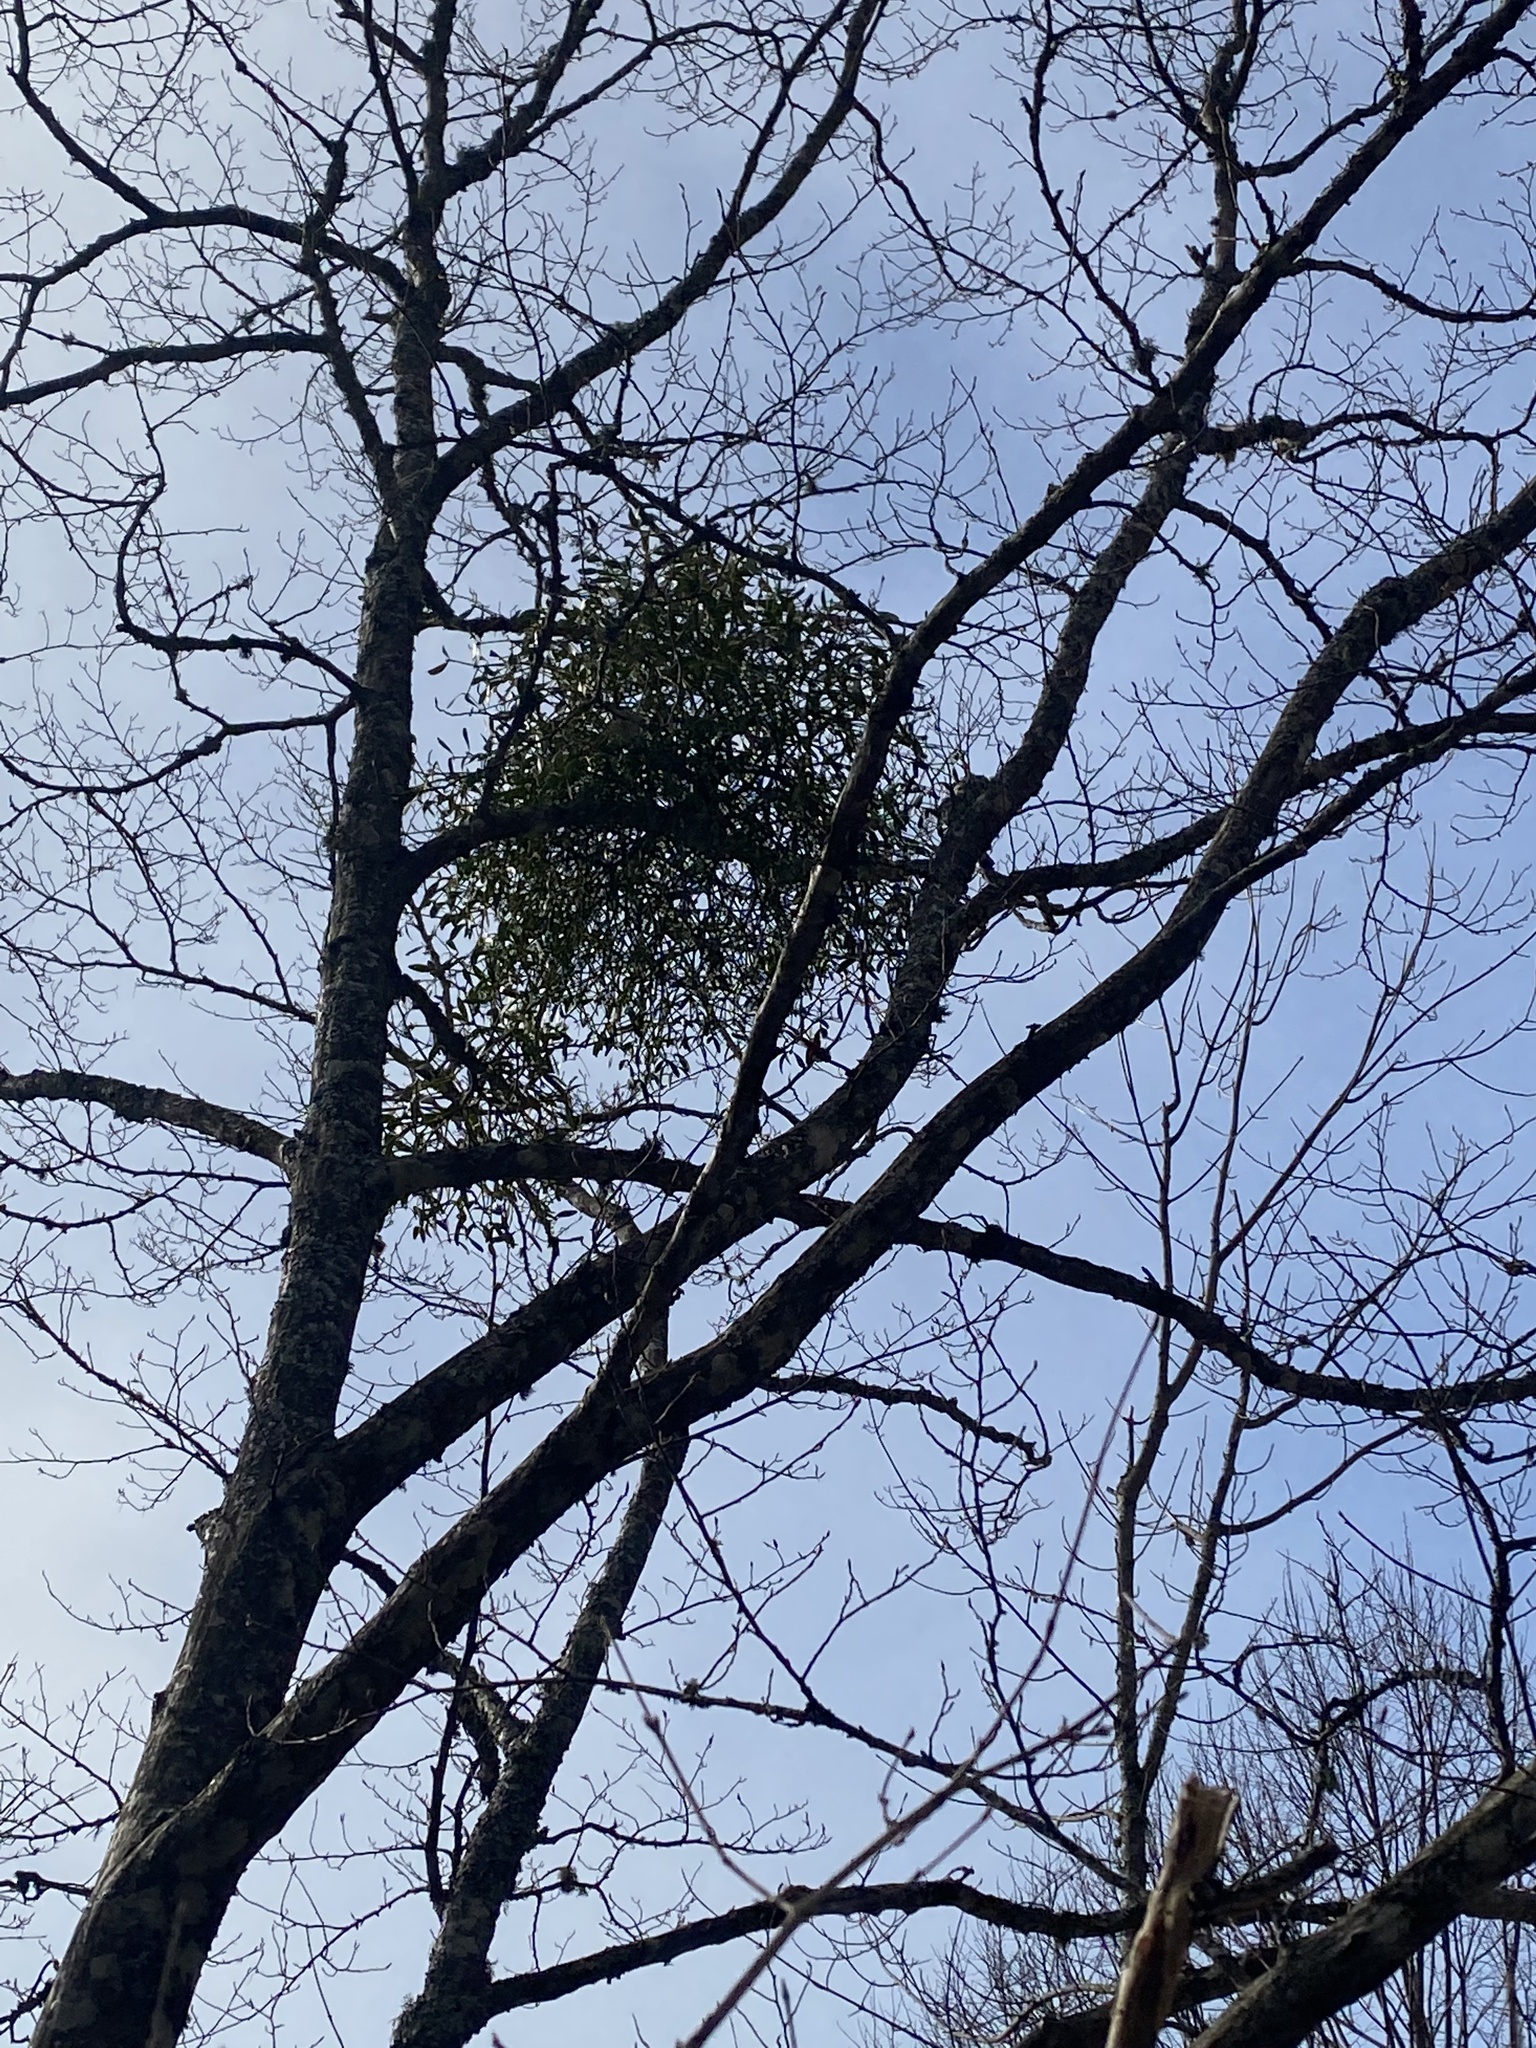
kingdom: Plantae
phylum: Tracheophyta
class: Magnoliopsida
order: Santalales
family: Viscaceae
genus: Viscum
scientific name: Viscum album
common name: Mistletoe
